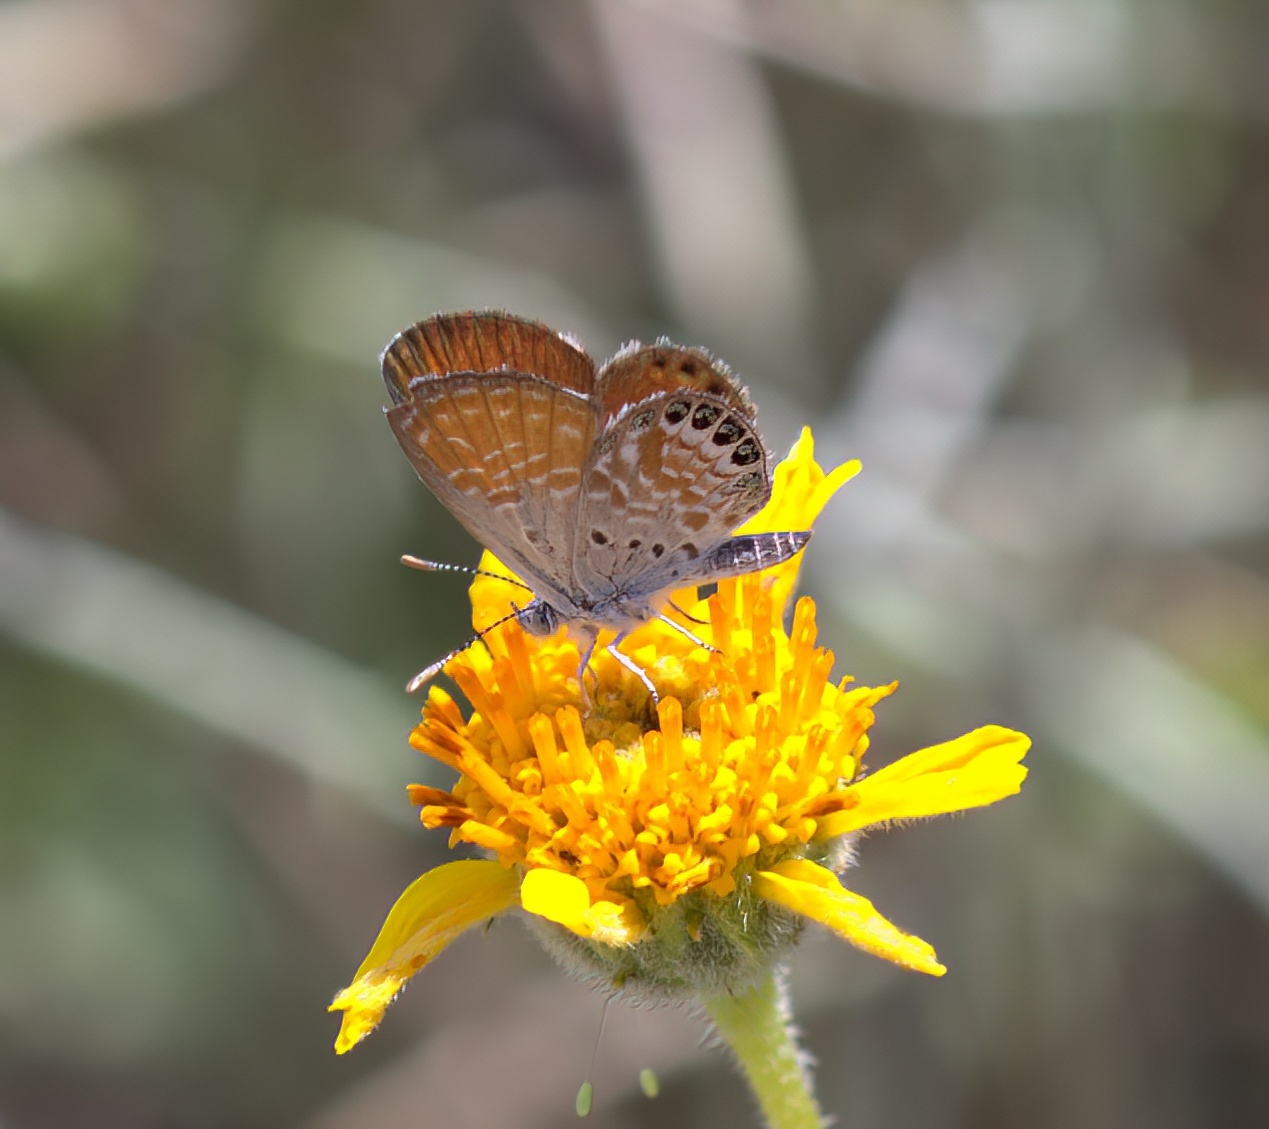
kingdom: Animalia
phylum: Arthropoda
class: Insecta
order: Lepidoptera
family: Lycaenidae
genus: Brephidium
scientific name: Brephidium exilis
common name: Pygmy blue
